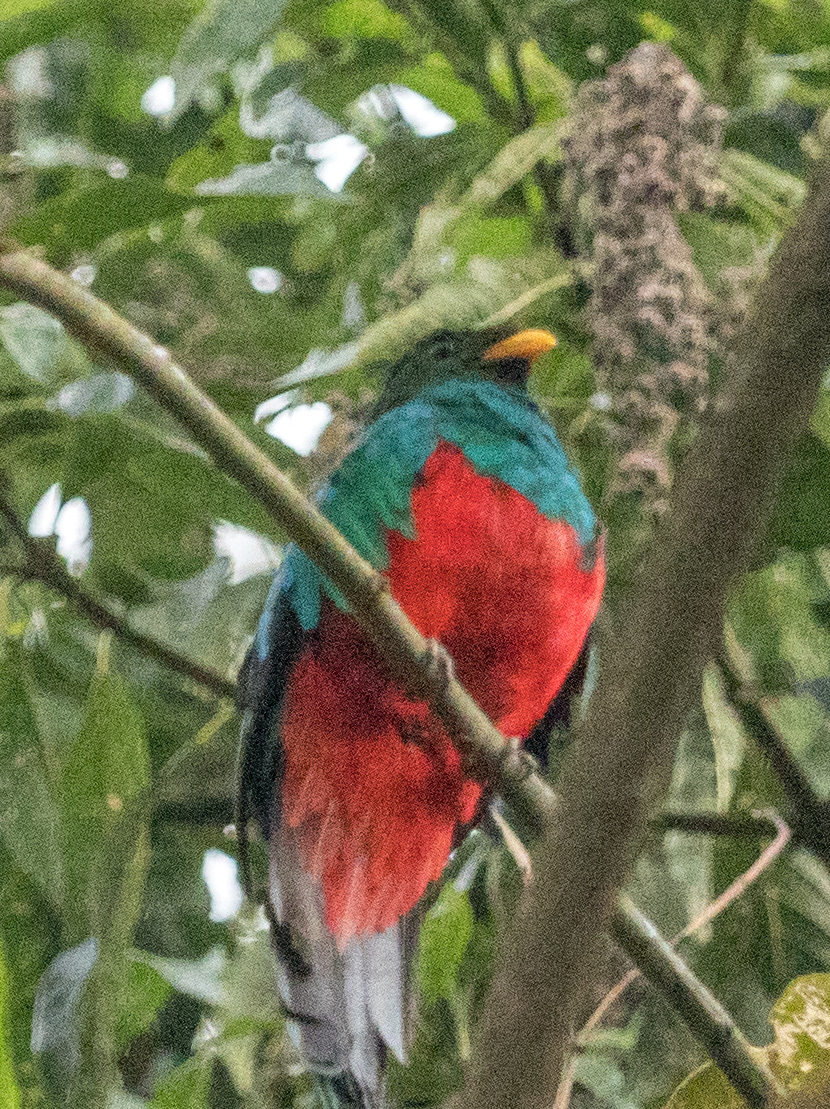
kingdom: Animalia
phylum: Chordata
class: Aves
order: Trogoniformes
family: Trogonidae
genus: Pharomachrus
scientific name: Pharomachrus auriceps
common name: Golden-headed quetzal
